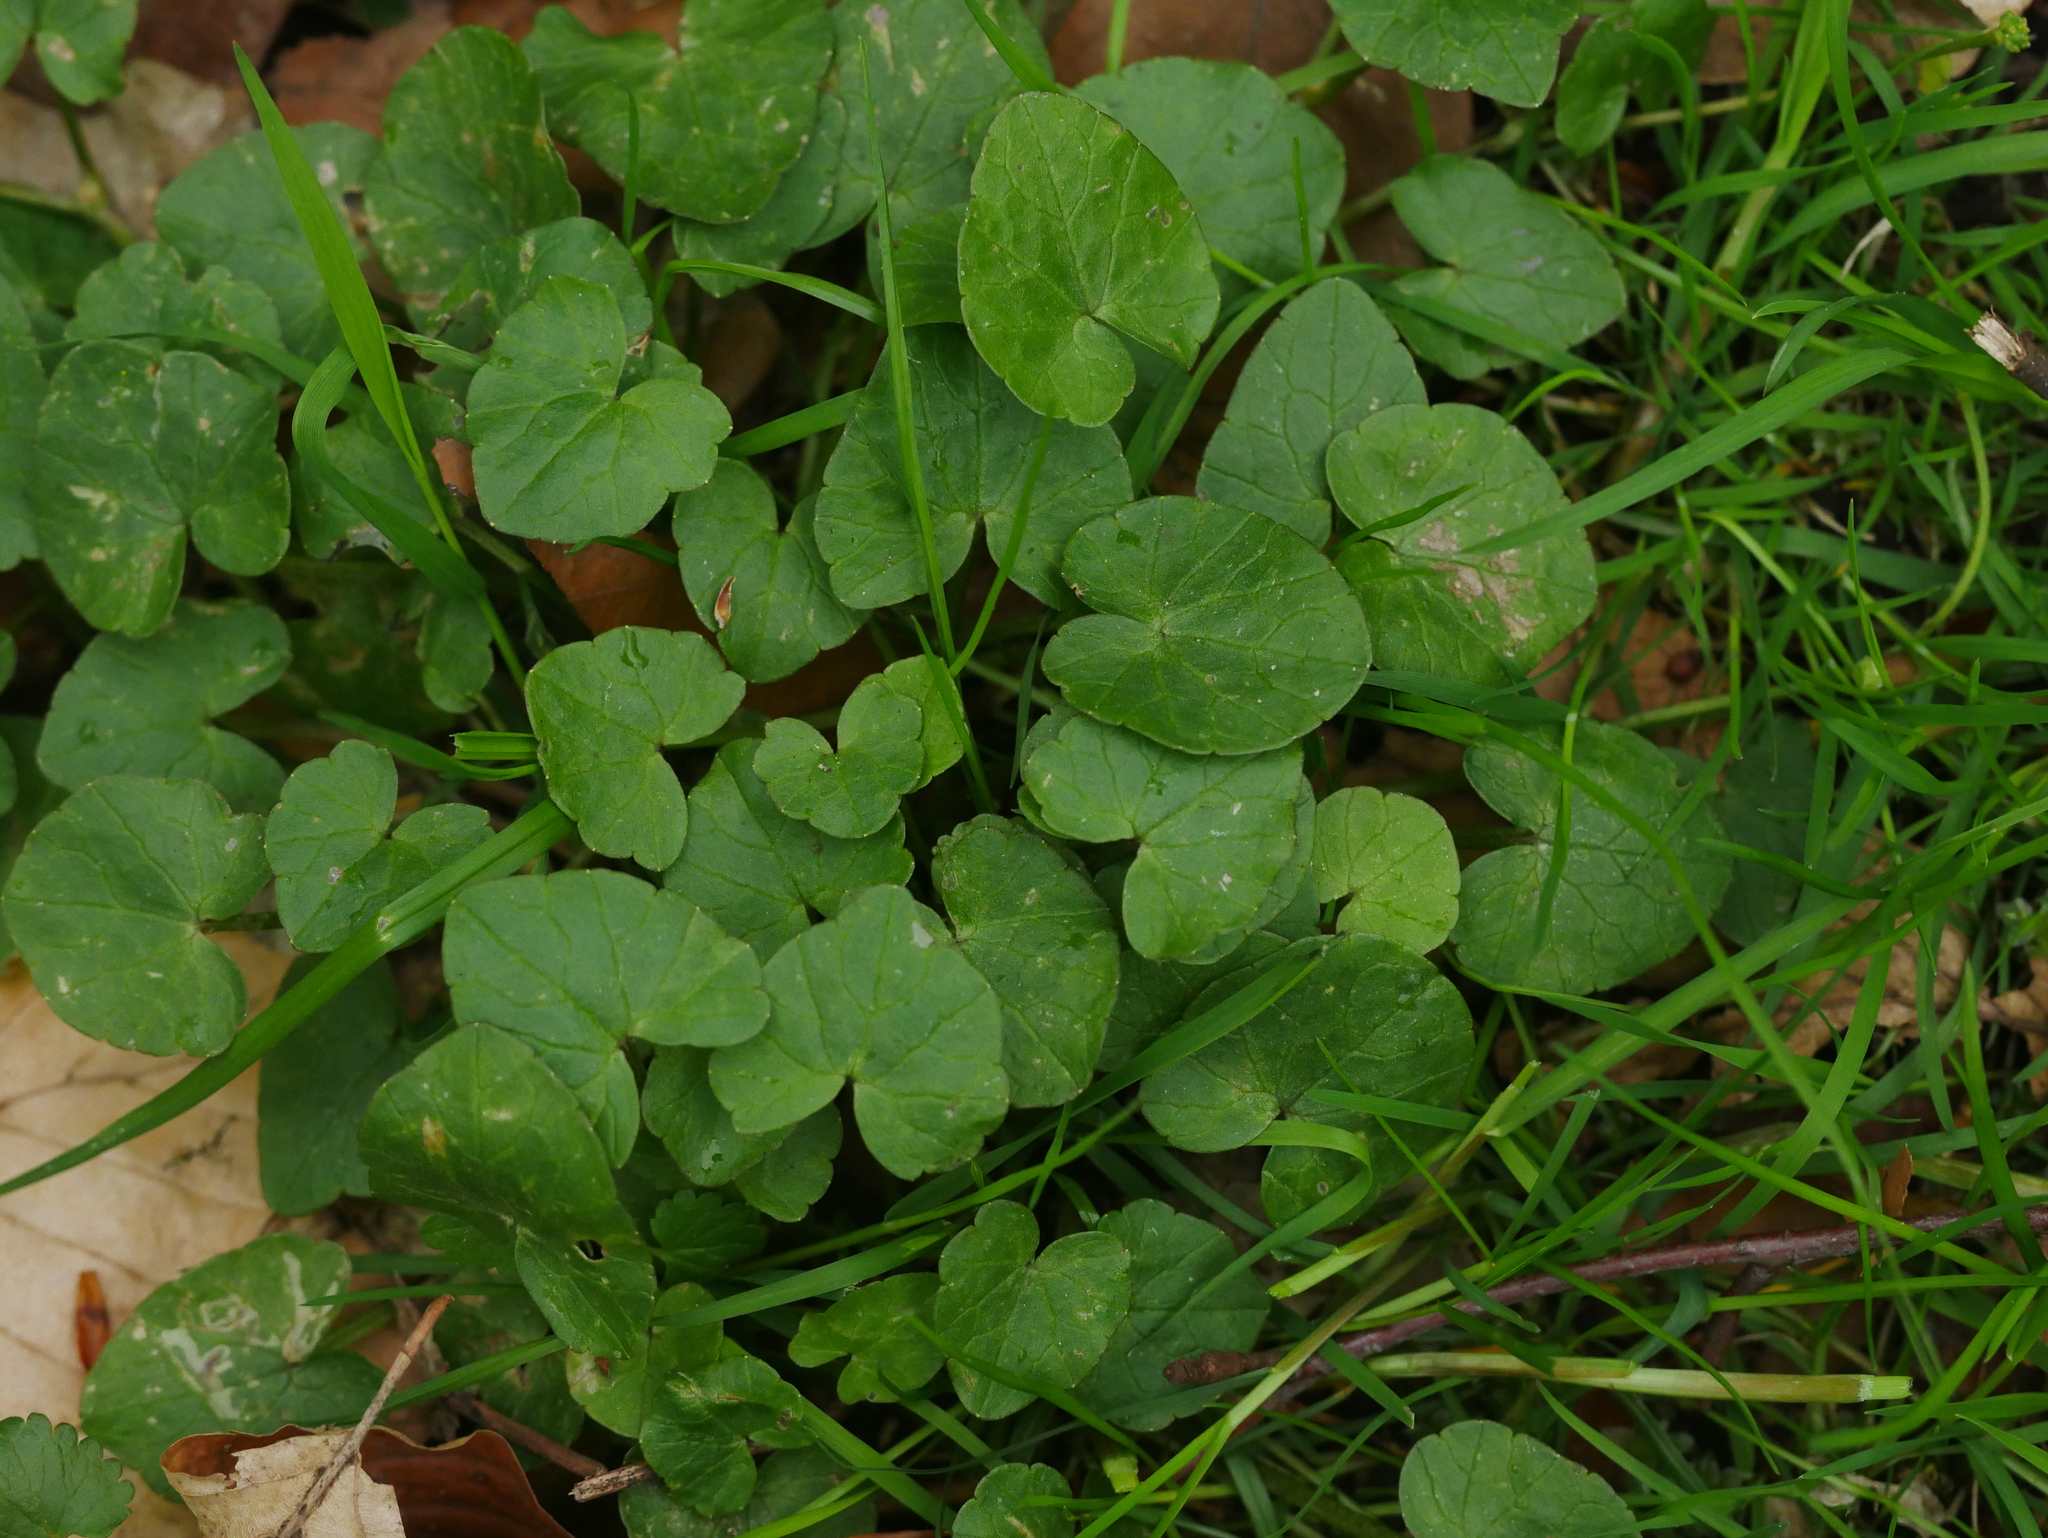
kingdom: Plantae
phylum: Tracheophyta
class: Magnoliopsida
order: Ranunculales
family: Ranunculaceae
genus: Ficaria
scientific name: Ficaria verna
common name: Lesser celandine
